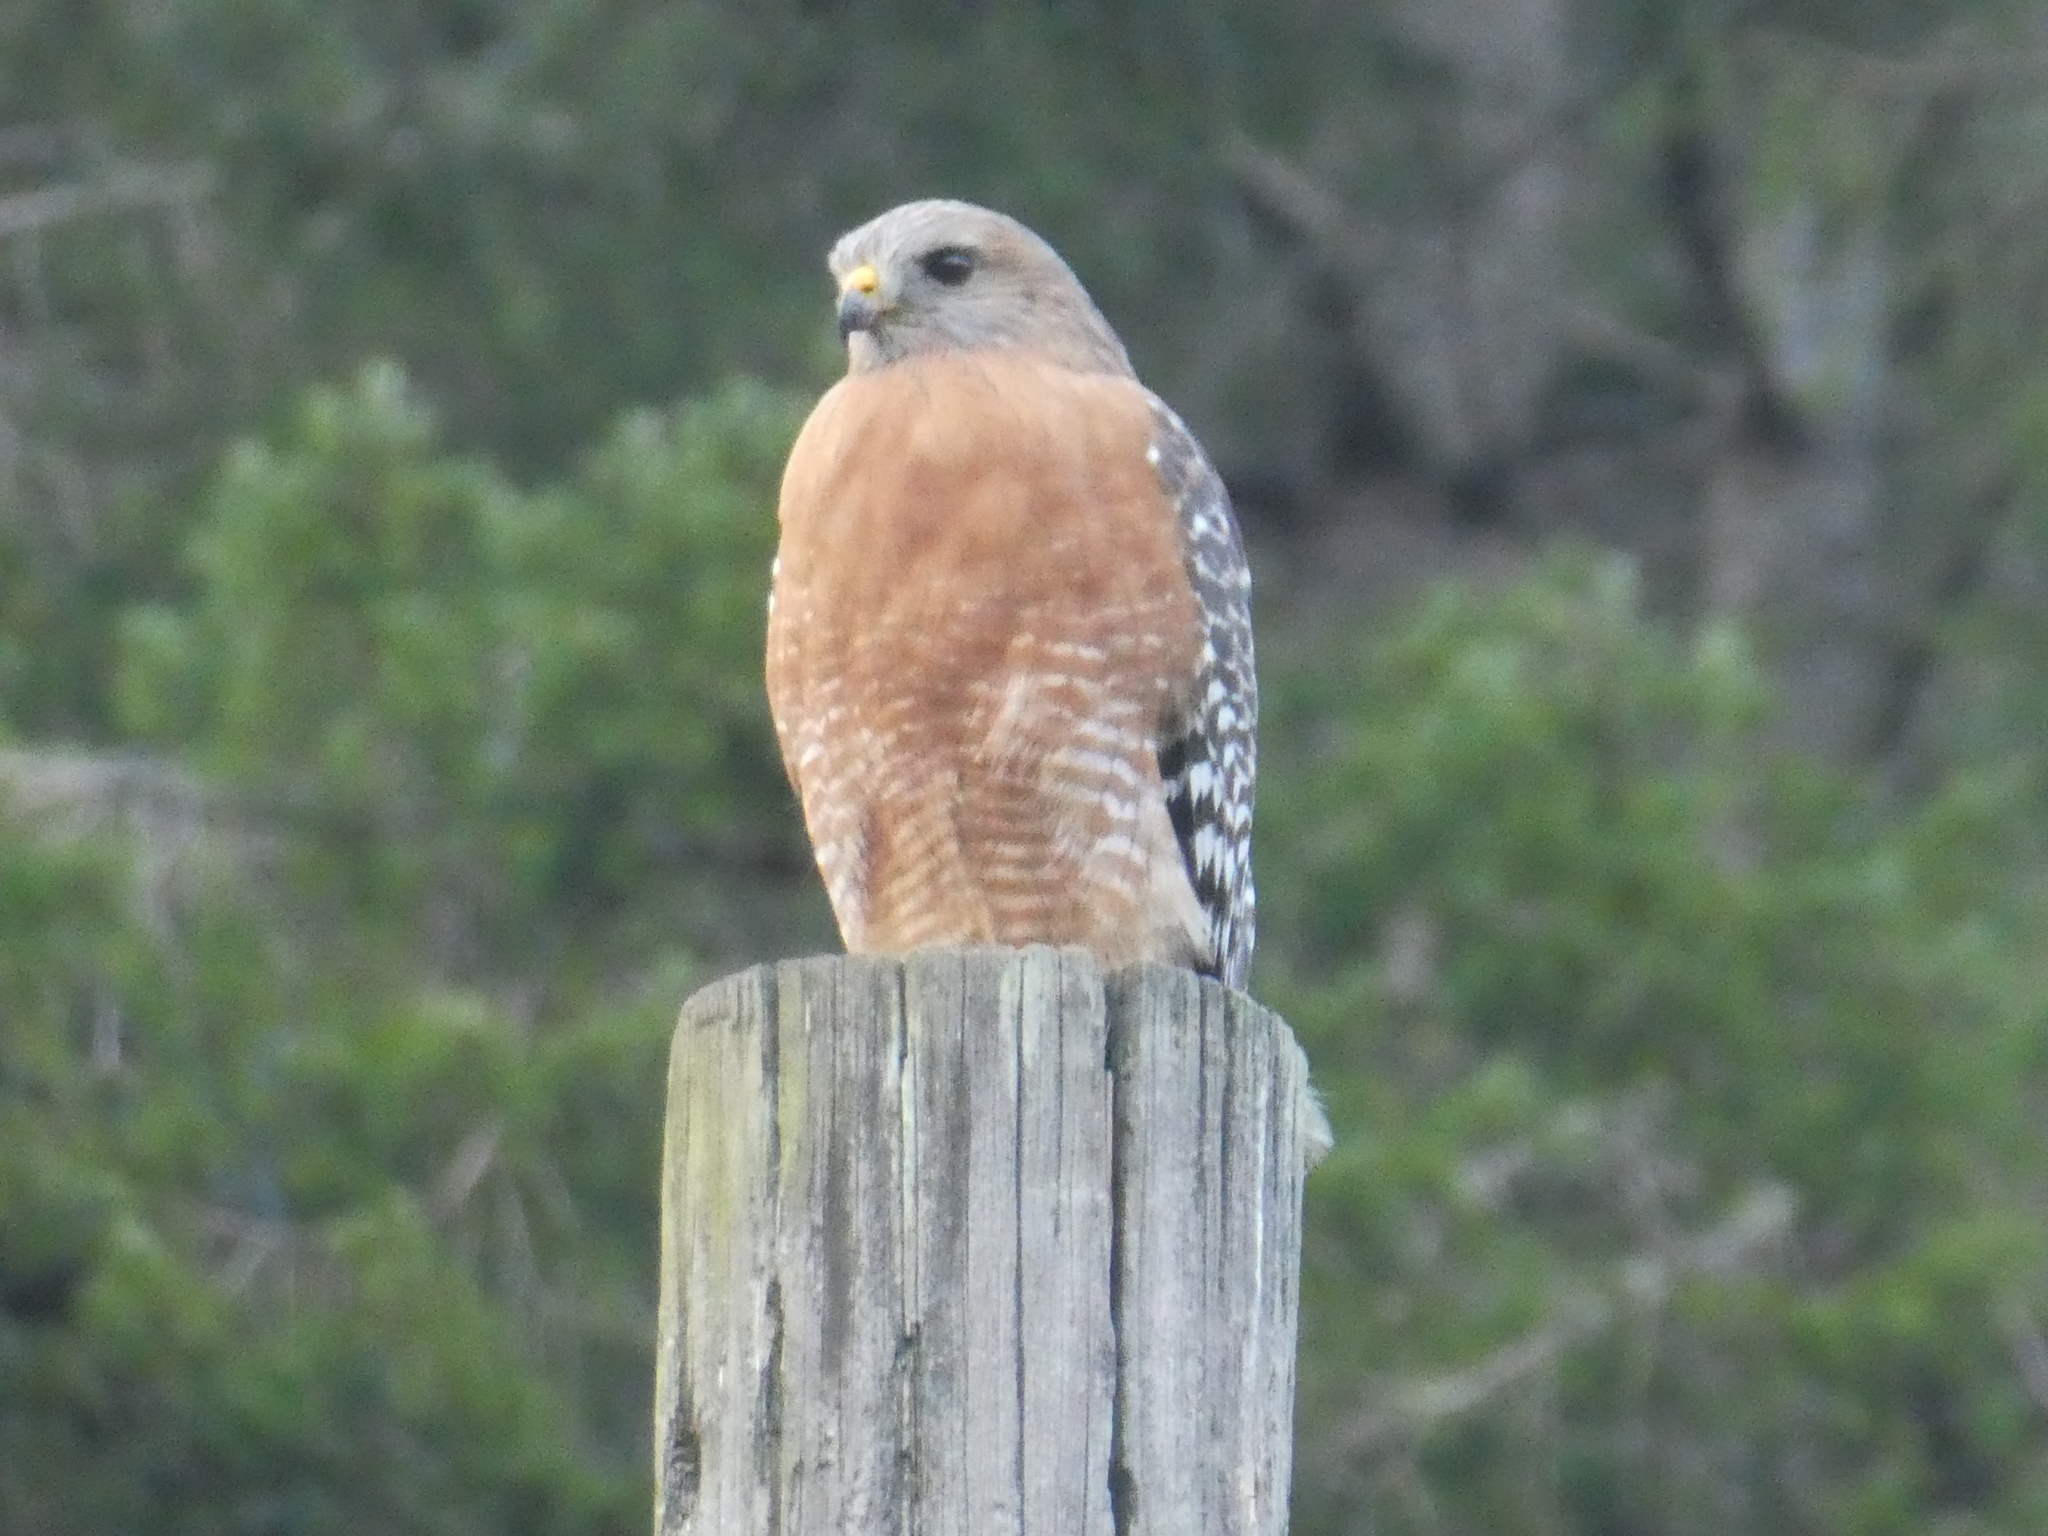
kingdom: Animalia
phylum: Chordata
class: Aves
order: Accipitriformes
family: Accipitridae
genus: Buteo
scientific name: Buteo lineatus
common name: Red-shouldered hawk
